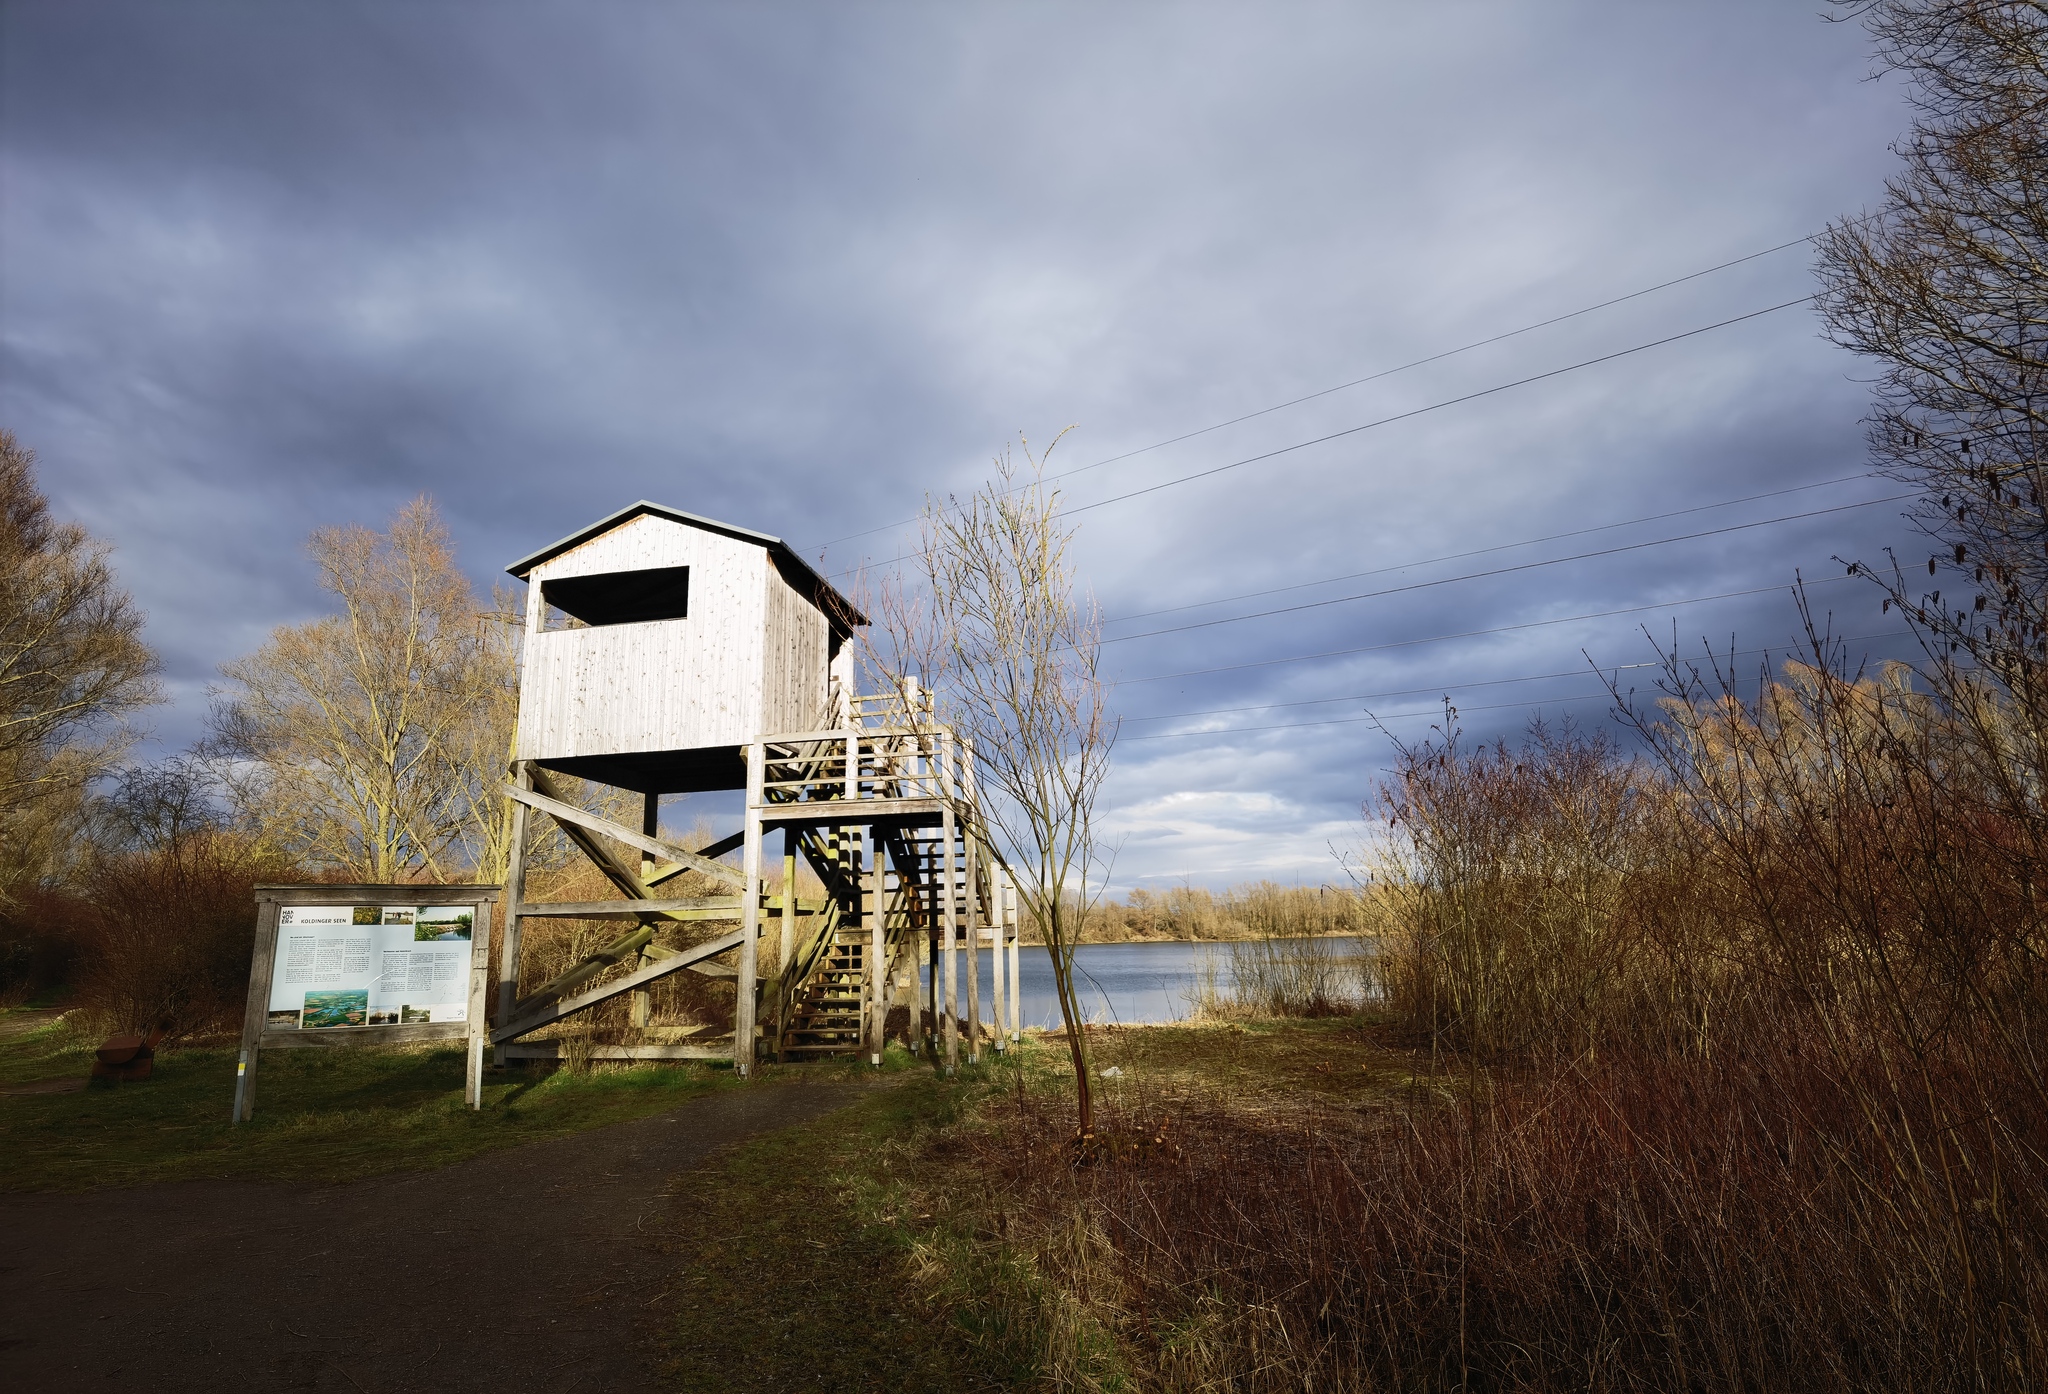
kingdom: Animalia
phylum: Chordata
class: Aves
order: Anseriformes
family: Anatidae
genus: Cygnus
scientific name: Cygnus olor
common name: Mute swan
